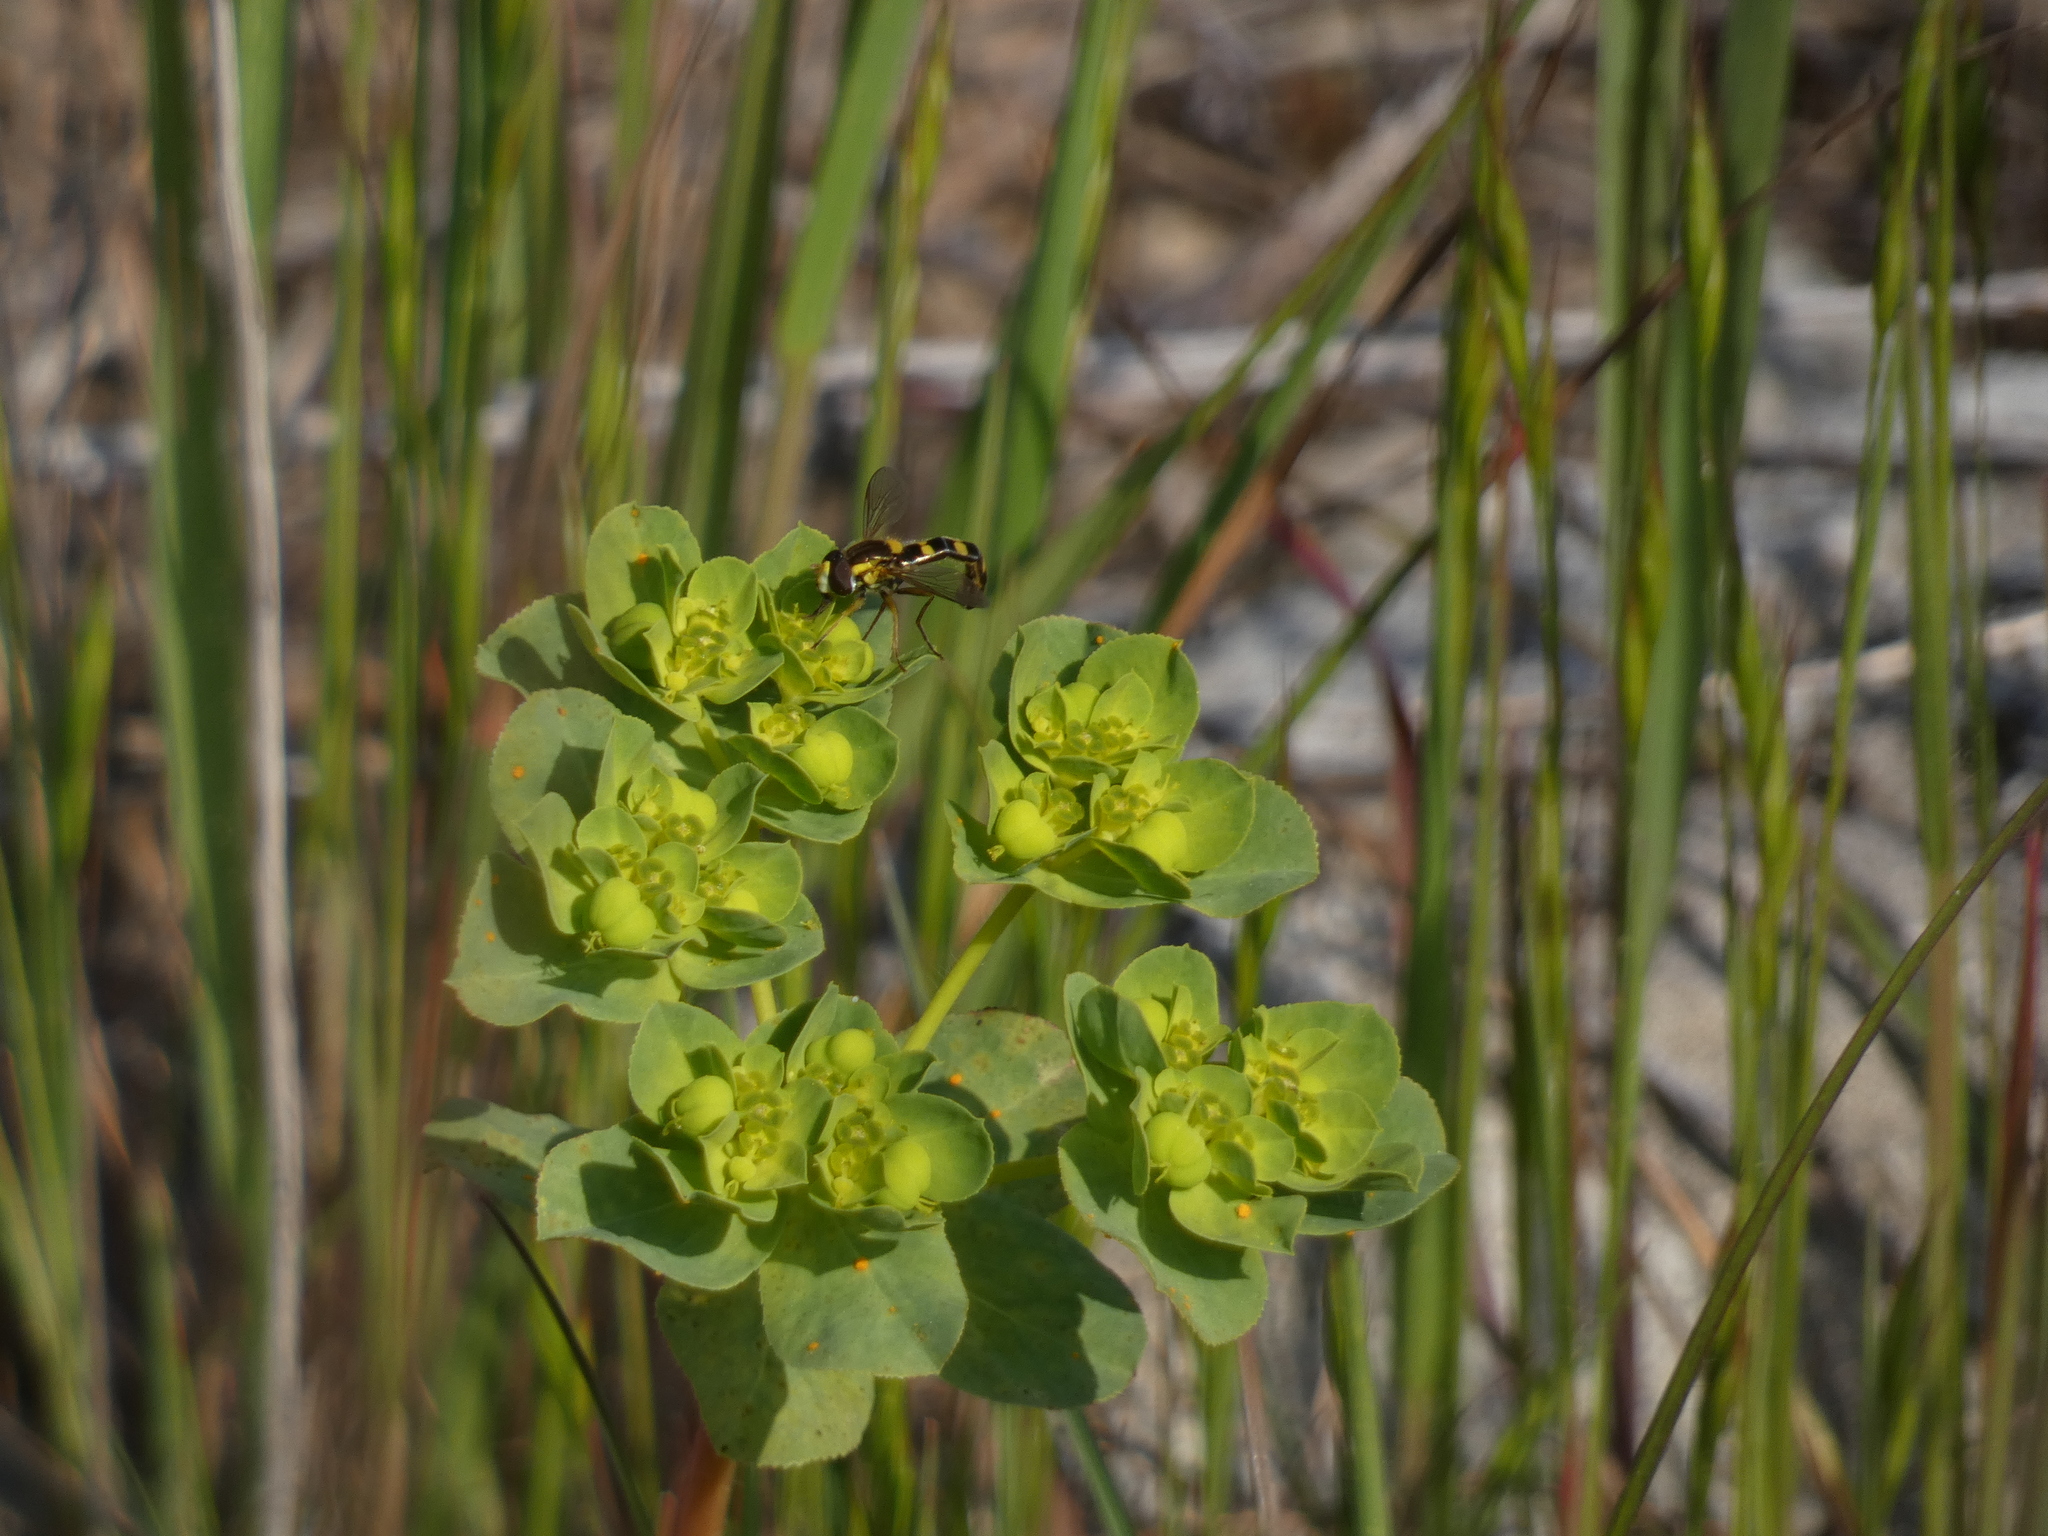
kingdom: Animalia
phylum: Arthropoda
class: Insecta
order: Diptera
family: Syrphidae
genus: Sphaerophoria
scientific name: Sphaerophoria scripta
